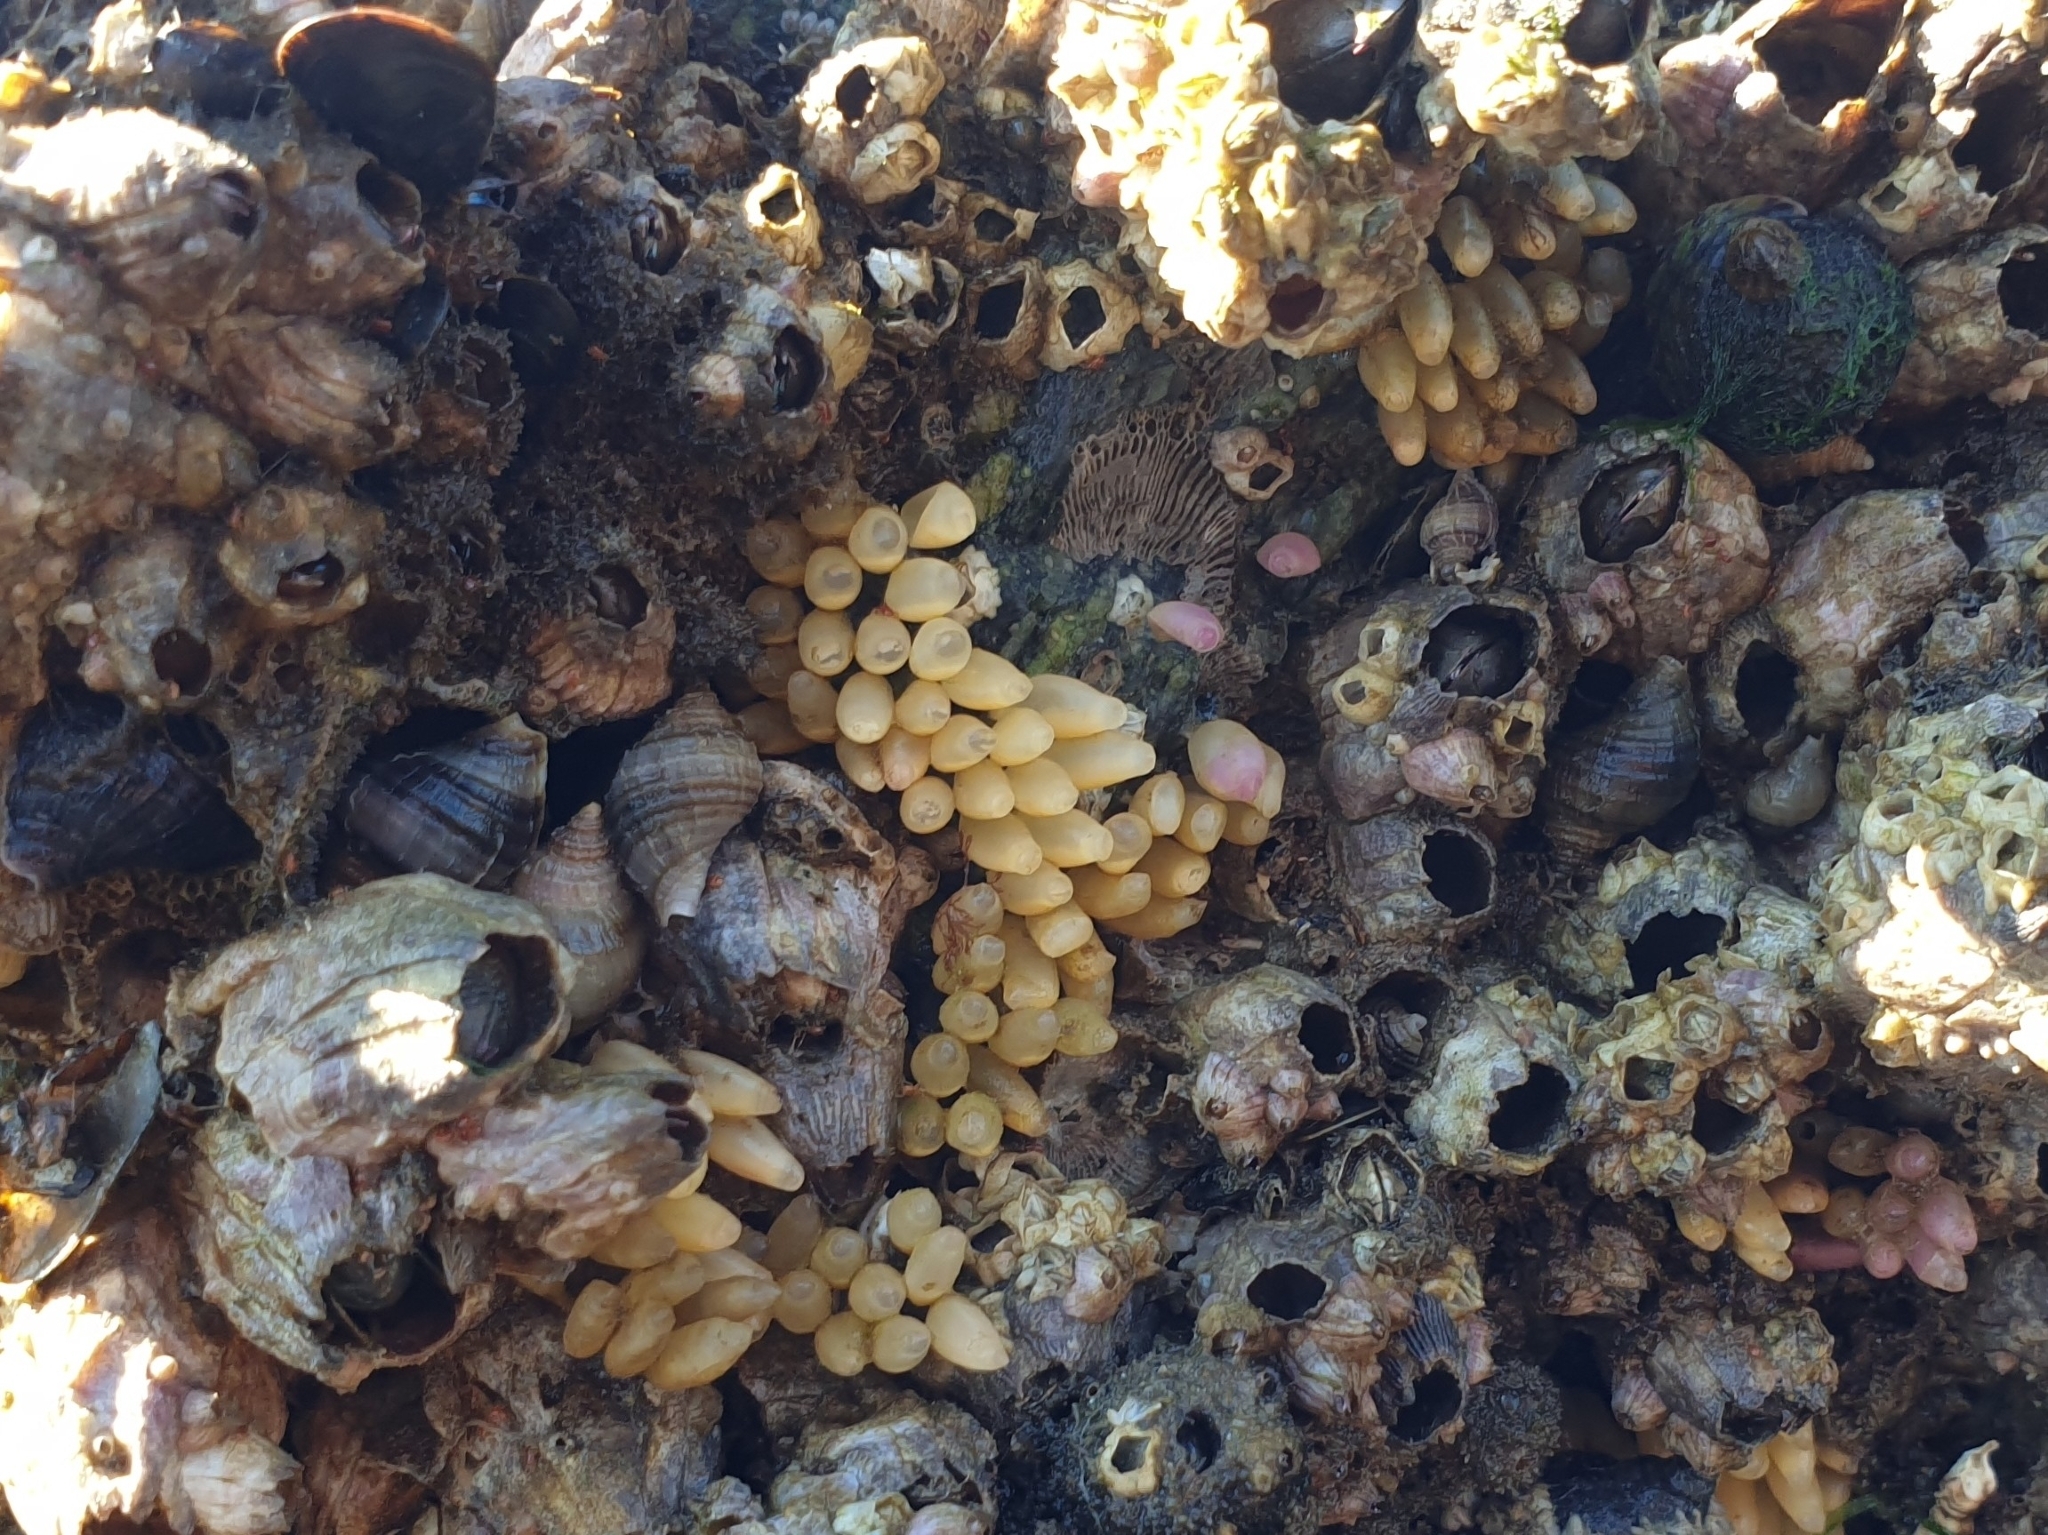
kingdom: Animalia
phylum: Mollusca
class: Gastropoda
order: Neogastropoda
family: Muricidae
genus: Nucella
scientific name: Nucella lapillus
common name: Dog whelk
